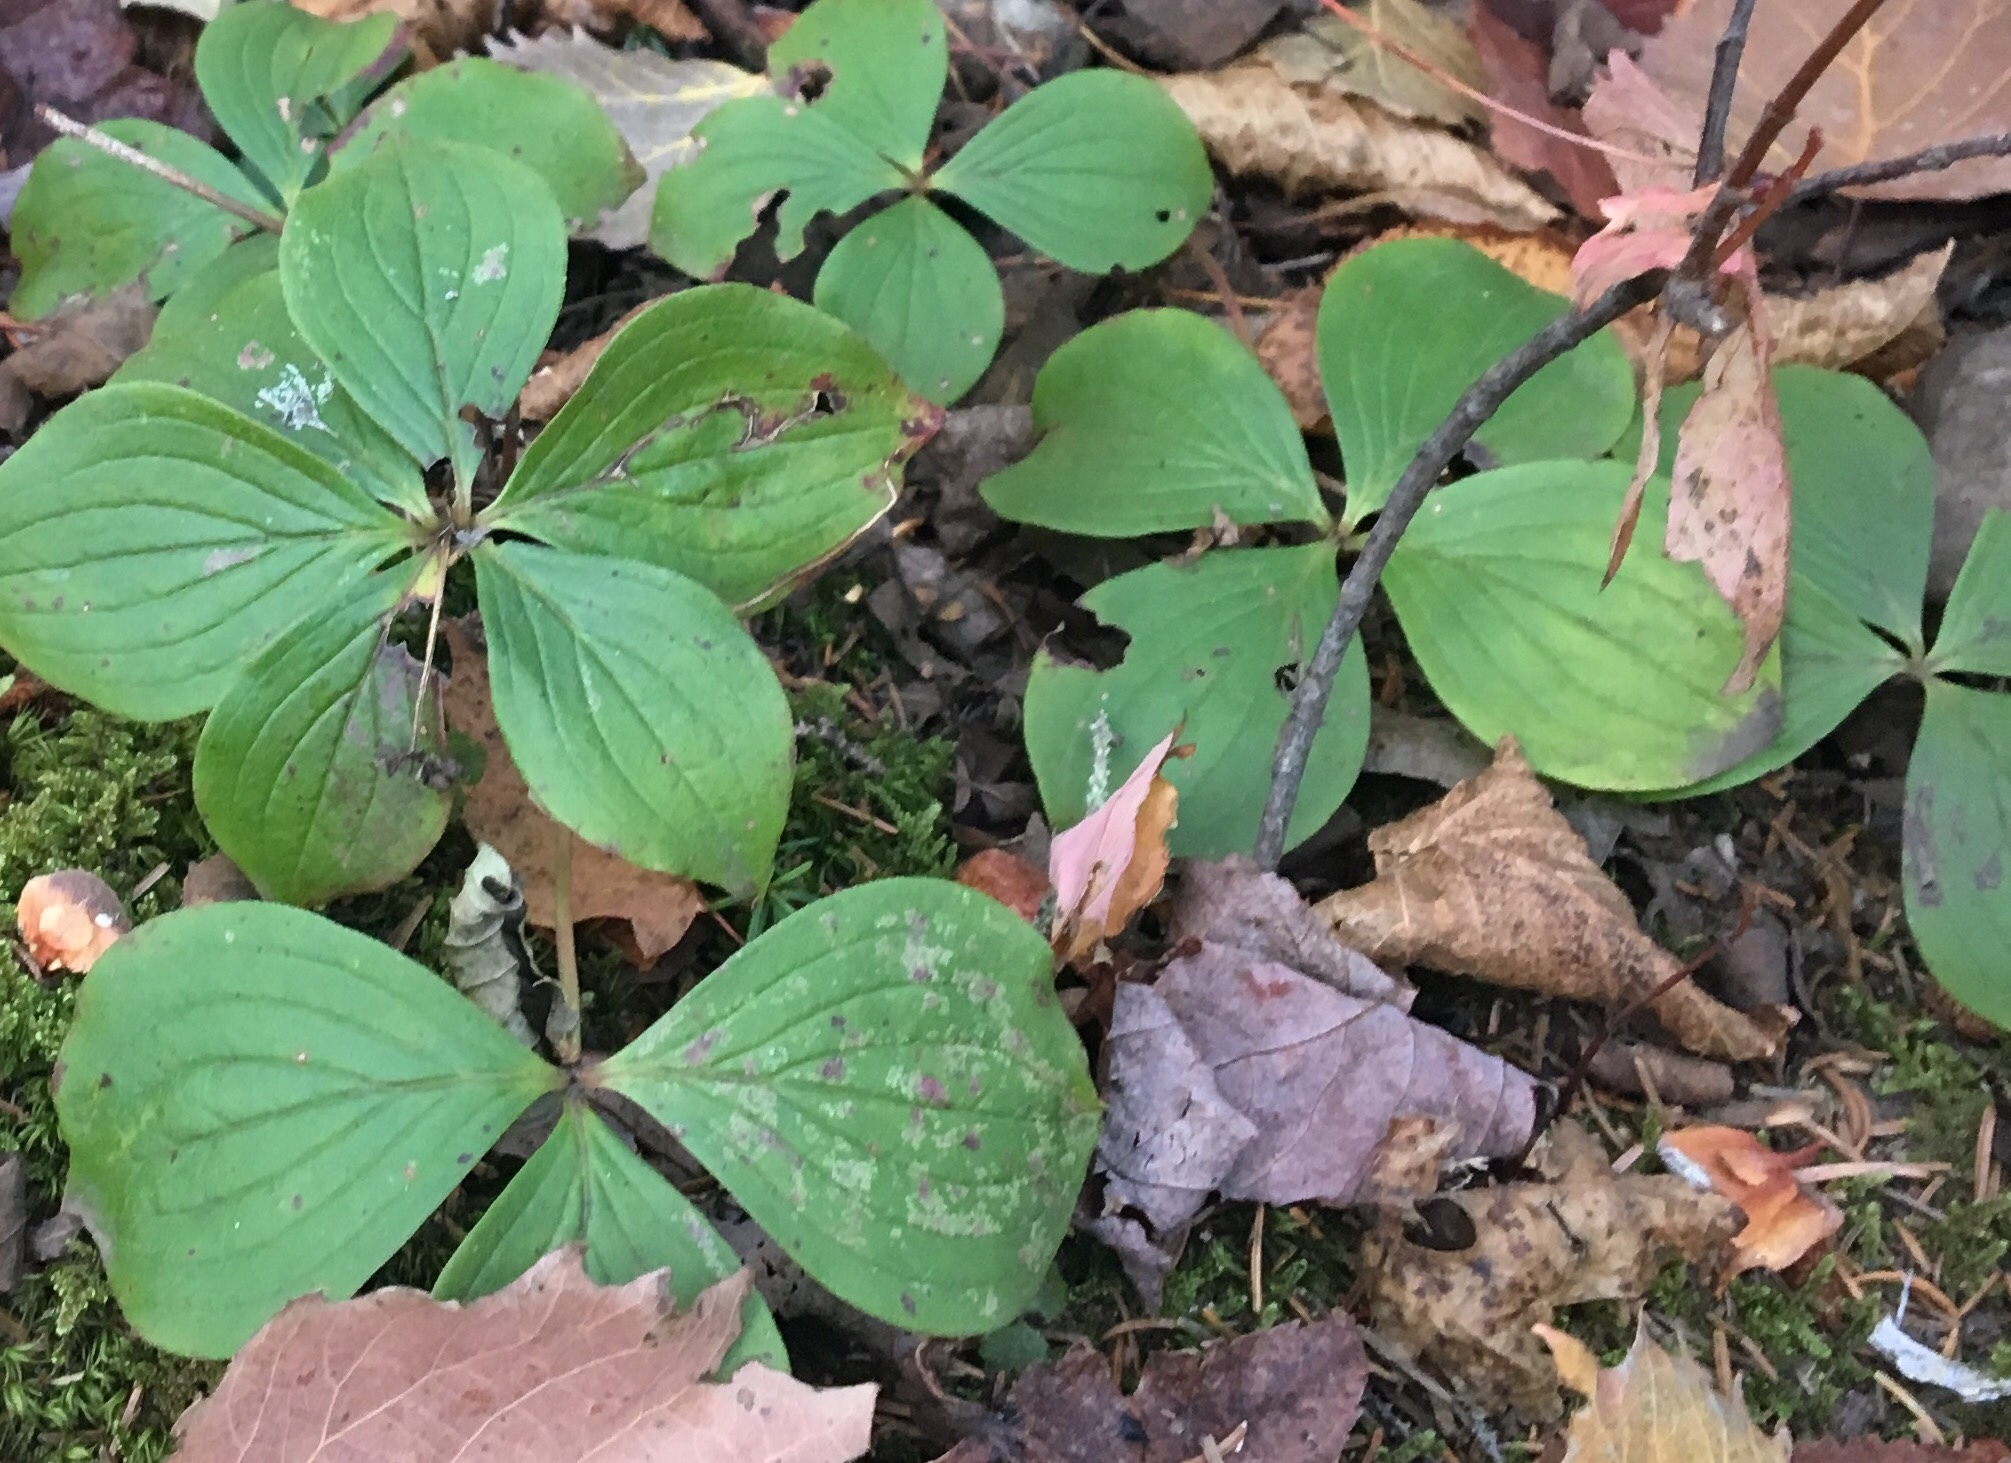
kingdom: Plantae
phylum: Tracheophyta
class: Magnoliopsida
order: Cornales
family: Cornaceae
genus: Cornus
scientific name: Cornus canadensis
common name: Creeping dogwood
